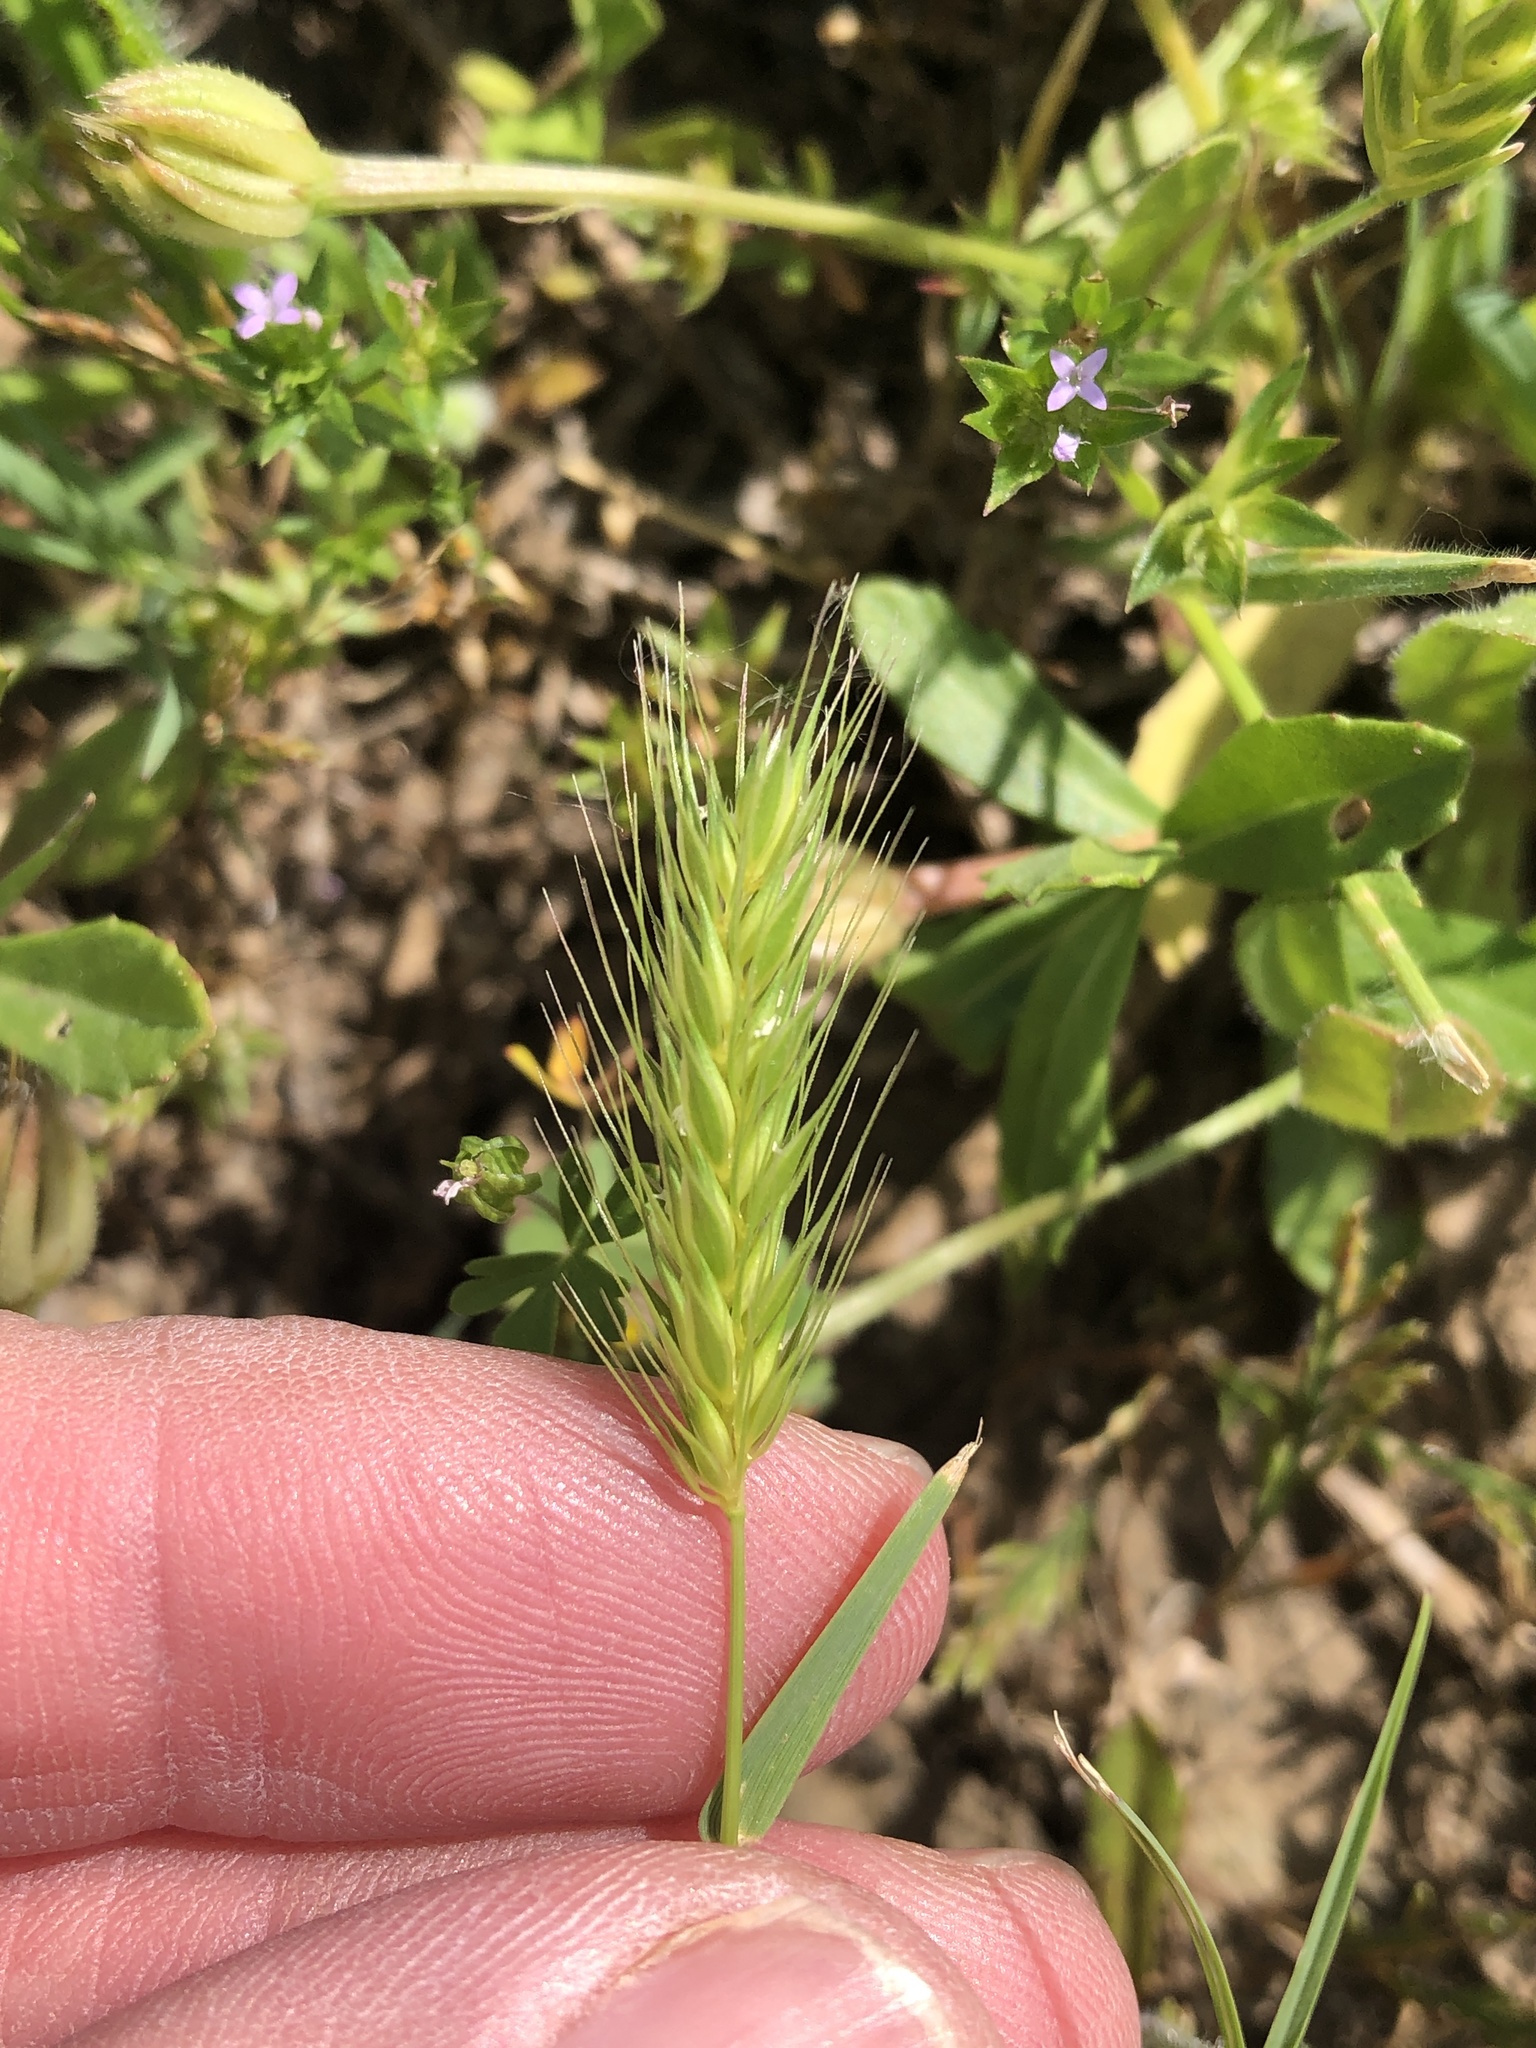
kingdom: Plantae
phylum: Tracheophyta
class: Liliopsida
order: Poales
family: Poaceae
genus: Hordeum
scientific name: Hordeum pusillum
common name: Little barley
